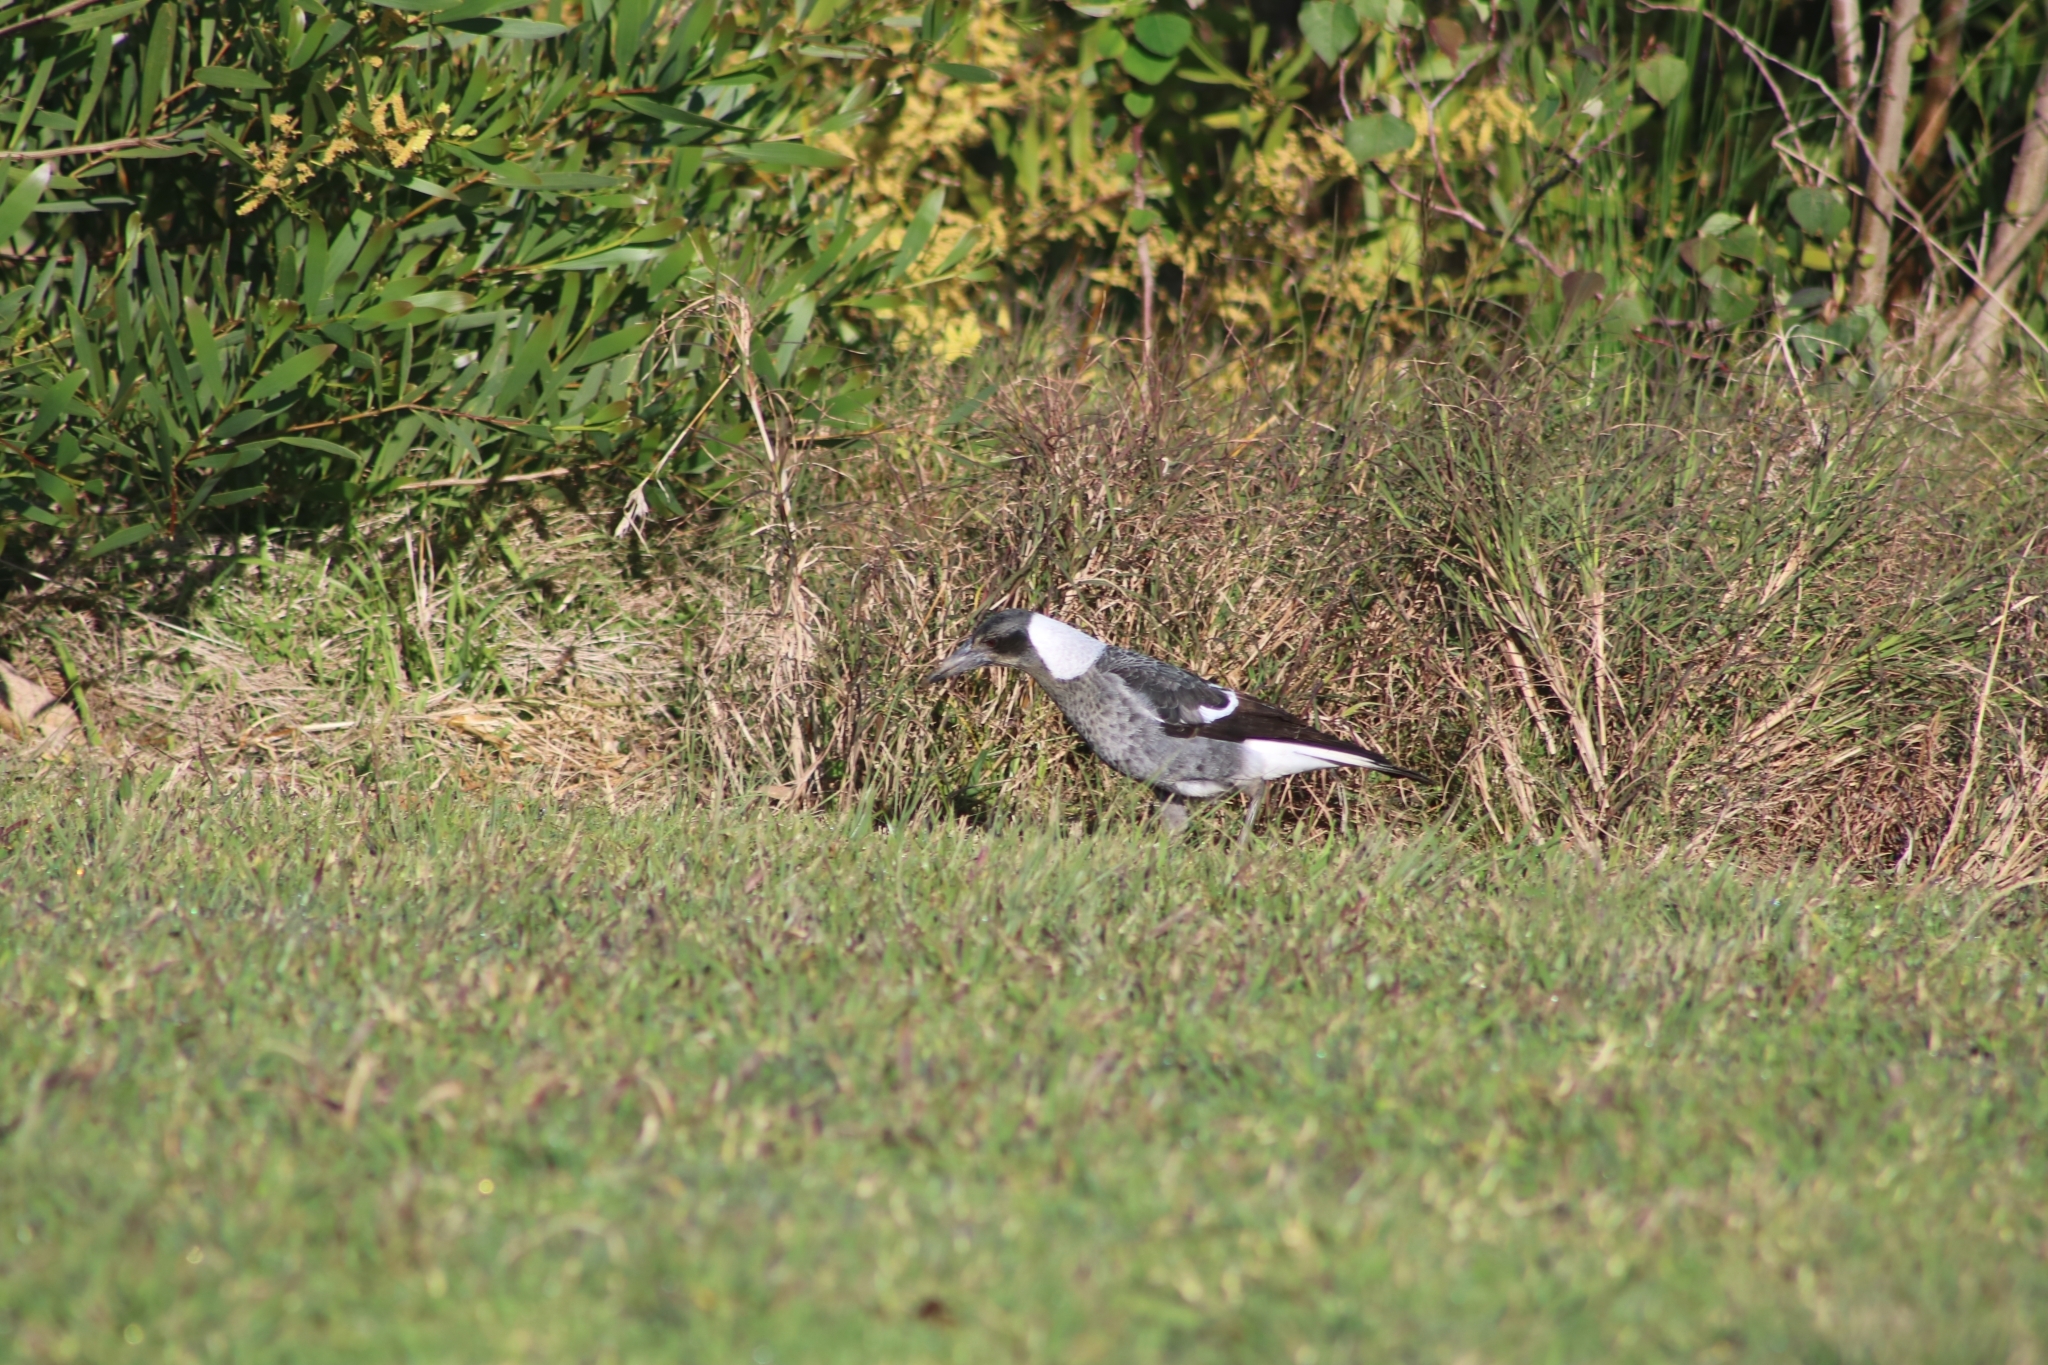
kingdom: Animalia
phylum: Chordata
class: Aves
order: Passeriformes
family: Cracticidae
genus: Gymnorhina
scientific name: Gymnorhina tibicen
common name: Australian magpie
